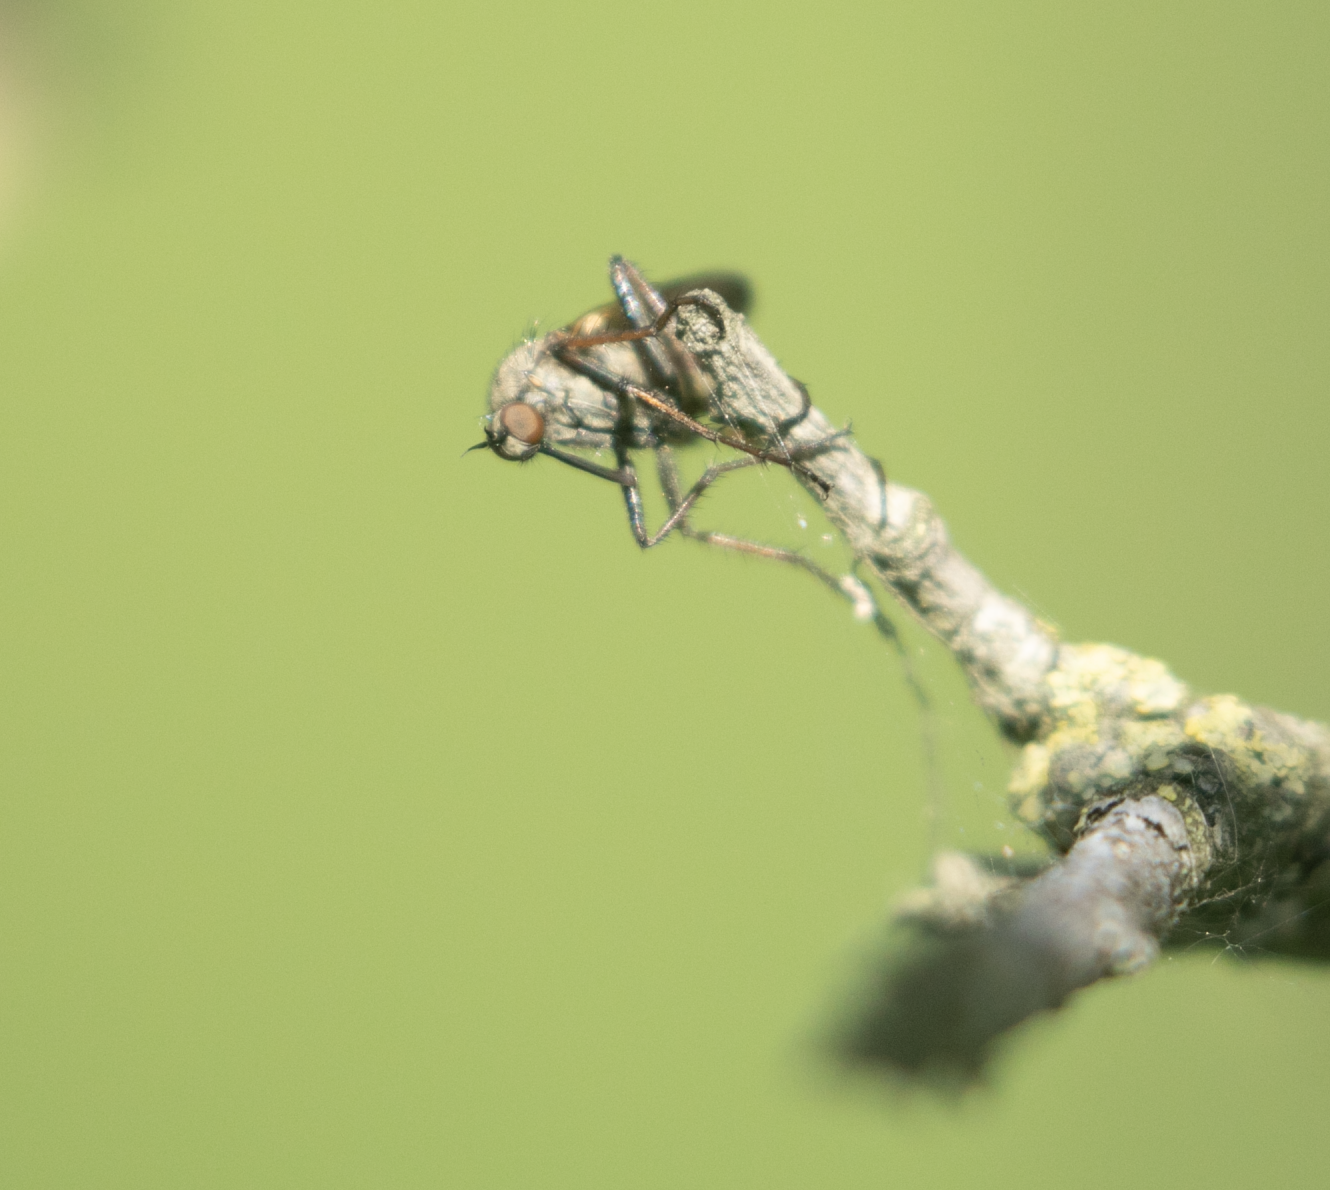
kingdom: Animalia
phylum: Arthropoda
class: Insecta
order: Diptera
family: Empididae
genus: Empis
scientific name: Empis tessellata
